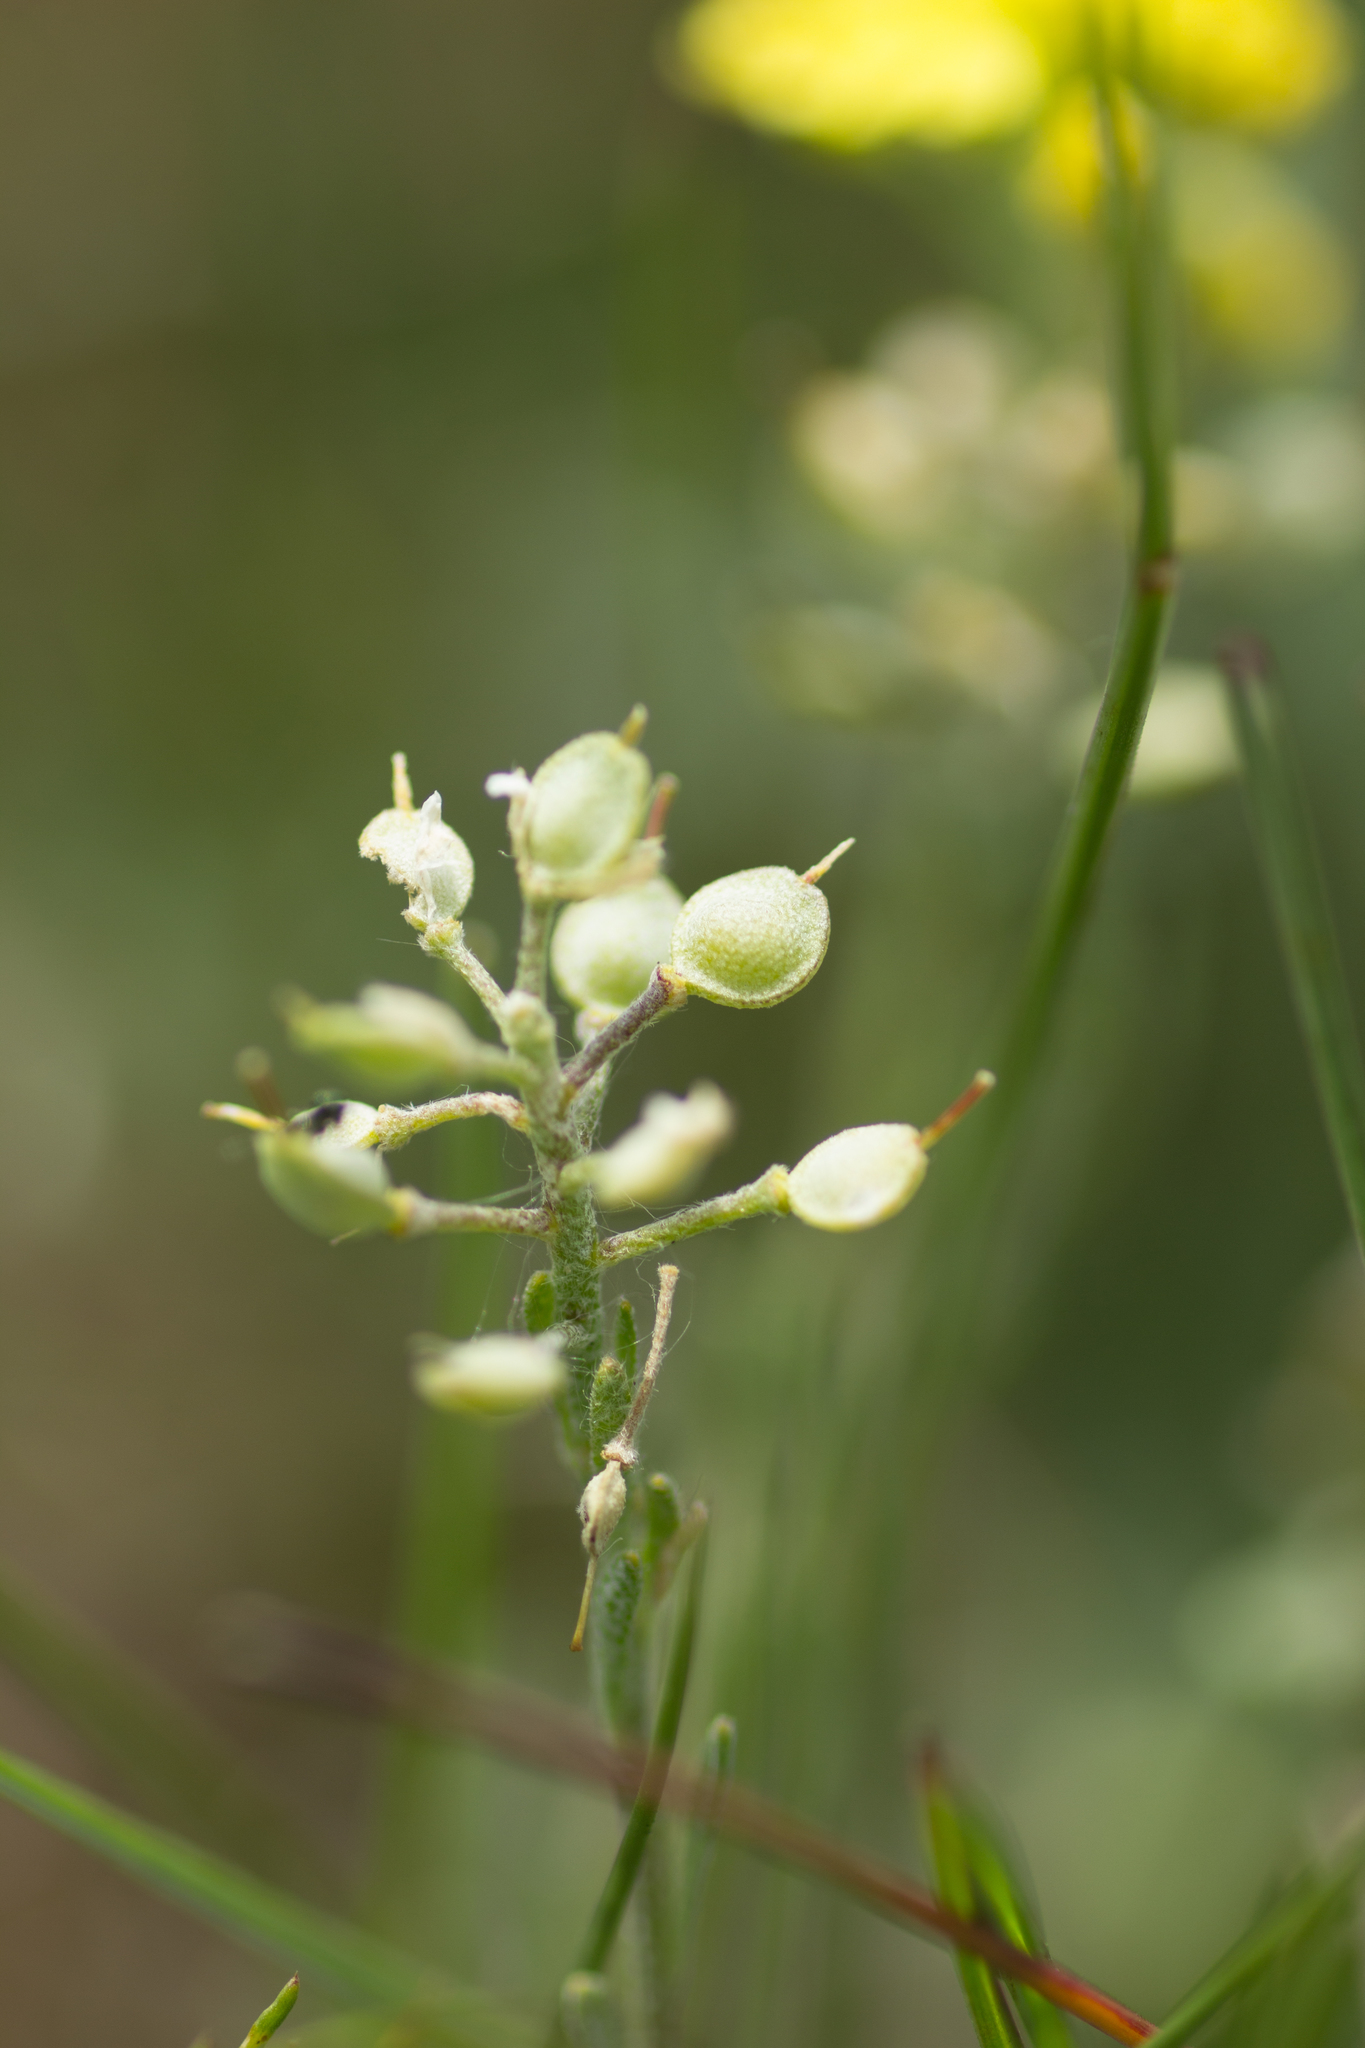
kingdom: Plantae
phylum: Tracheophyta
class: Magnoliopsida
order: Brassicales
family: Brassicaceae
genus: Alyssum
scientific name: Alyssum gmelinii
